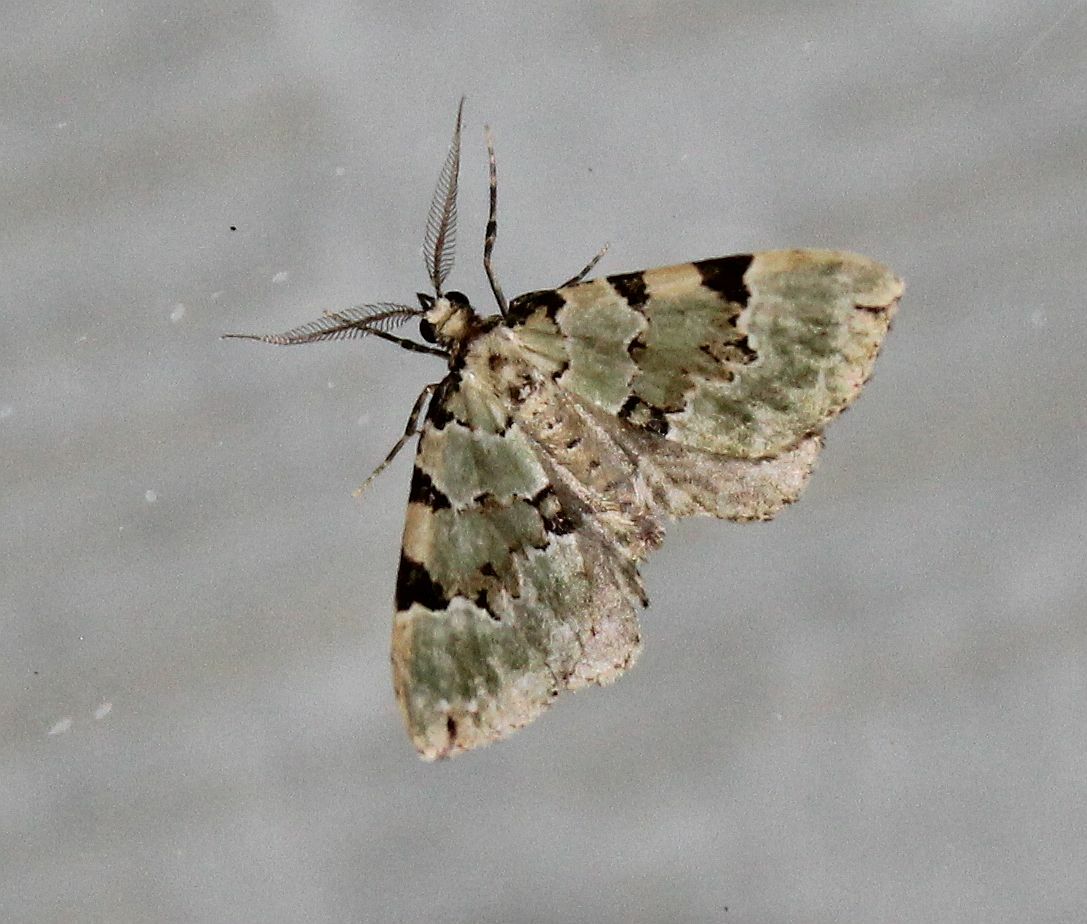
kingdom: Animalia
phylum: Arthropoda
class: Insecta
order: Lepidoptera
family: Geometridae
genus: Colostygia
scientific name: Colostygia pectinataria
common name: Green carpet
